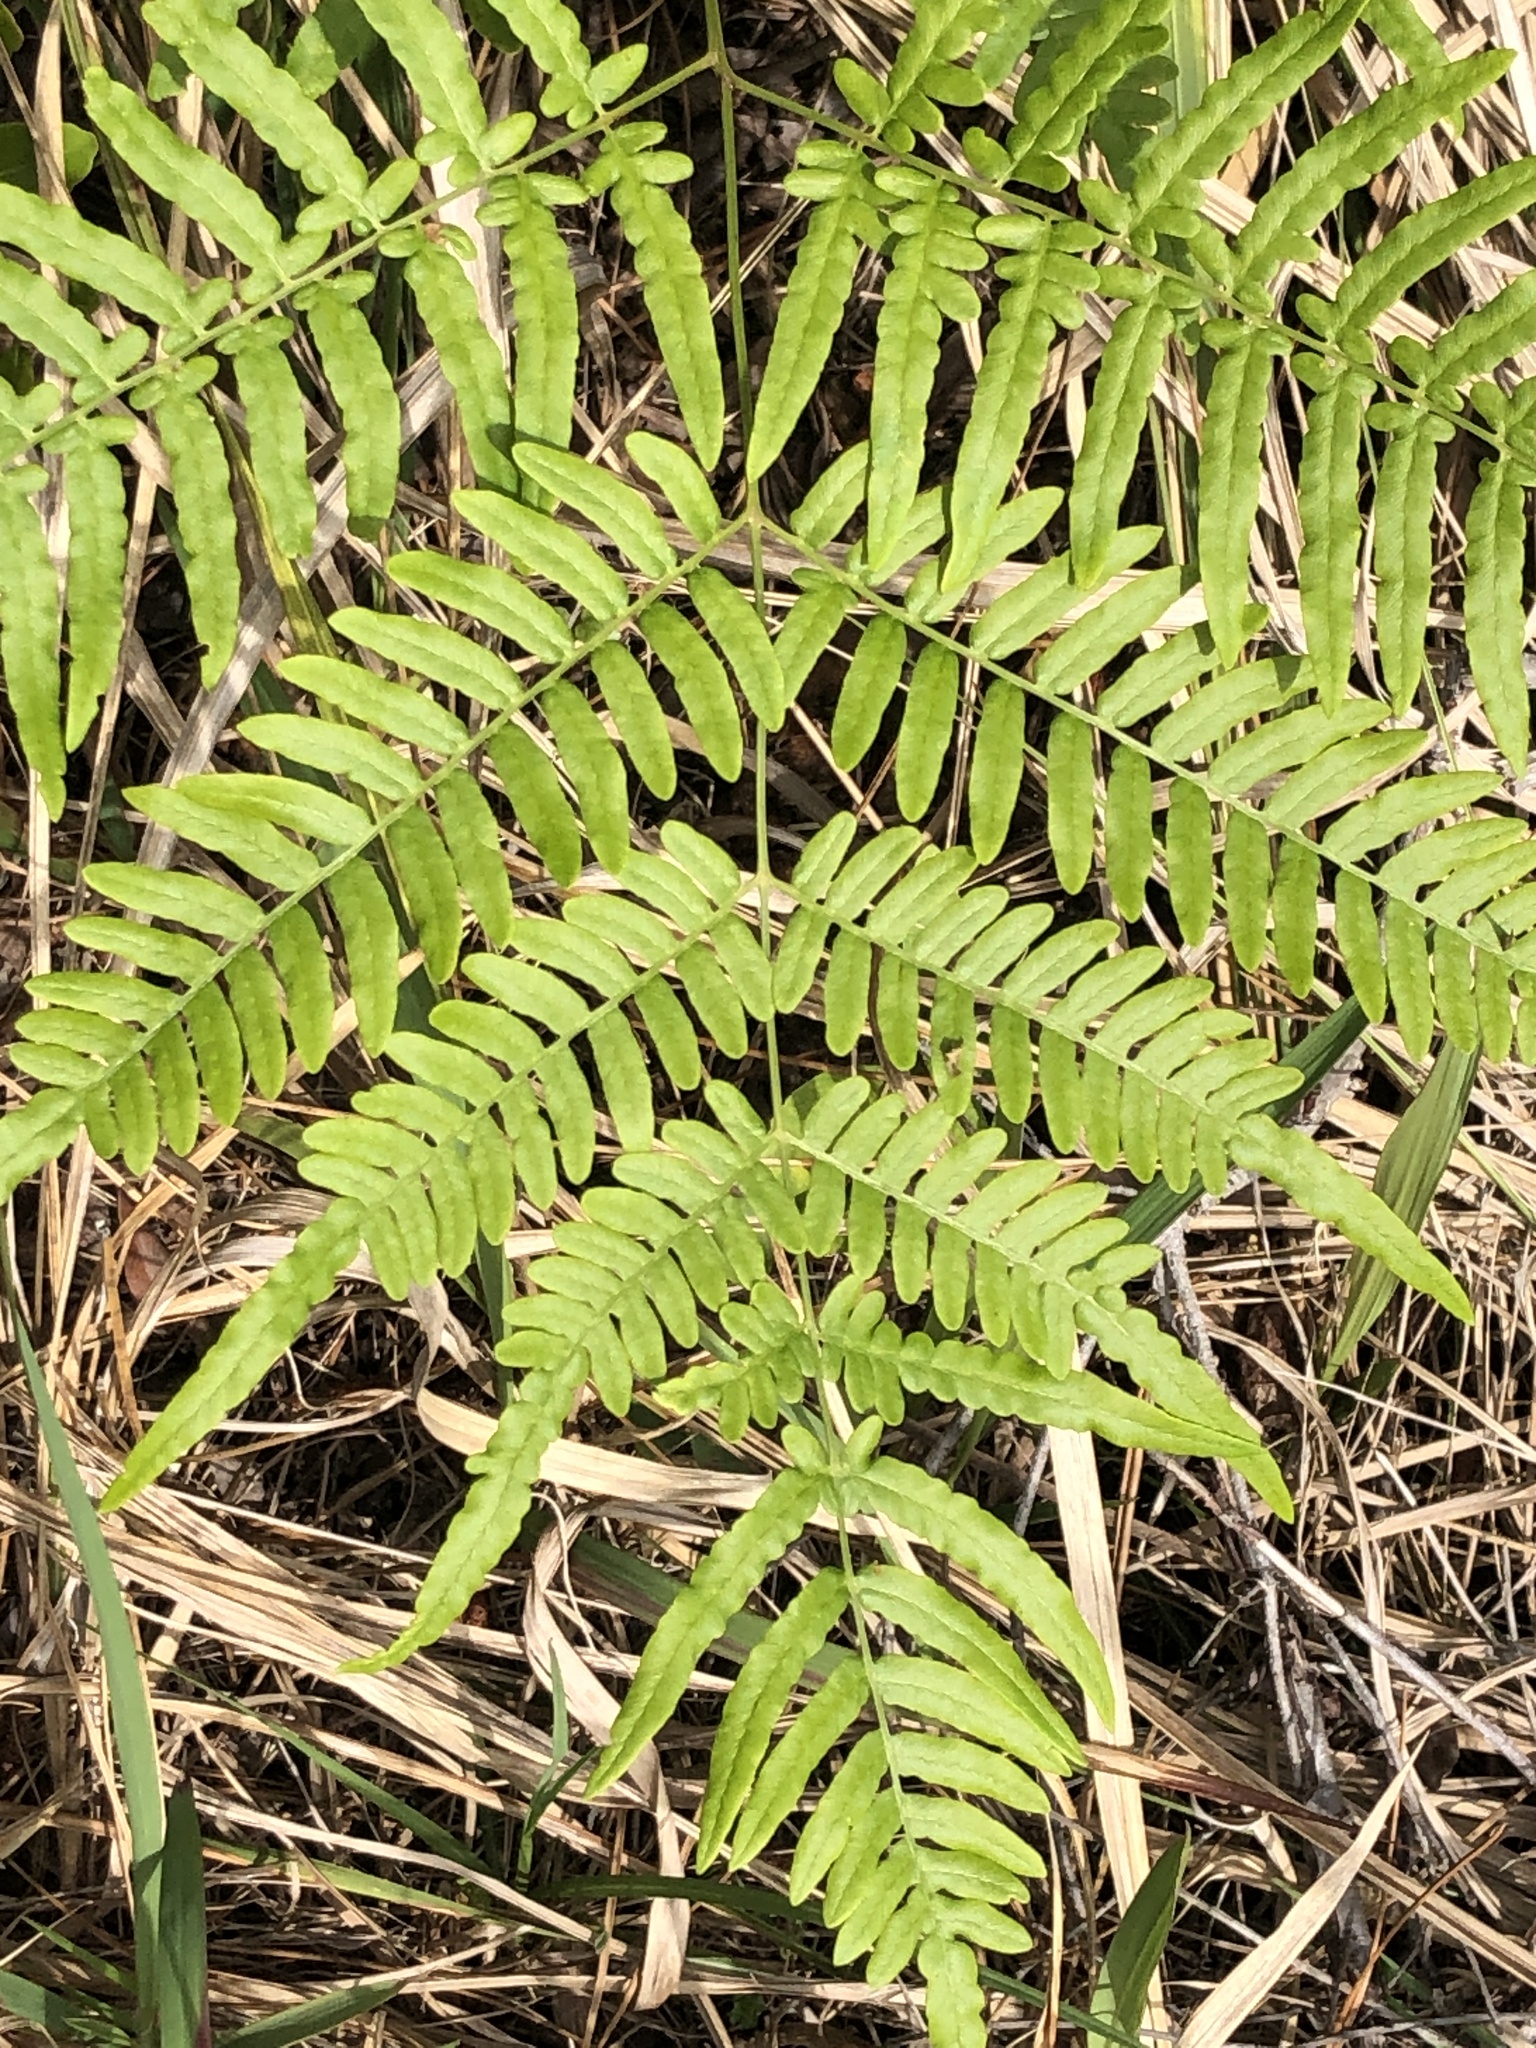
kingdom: Plantae
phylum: Tracheophyta
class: Polypodiopsida
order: Polypodiales
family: Dennstaedtiaceae
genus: Pteridium
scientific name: Pteridium aquilinum
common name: Bracken
